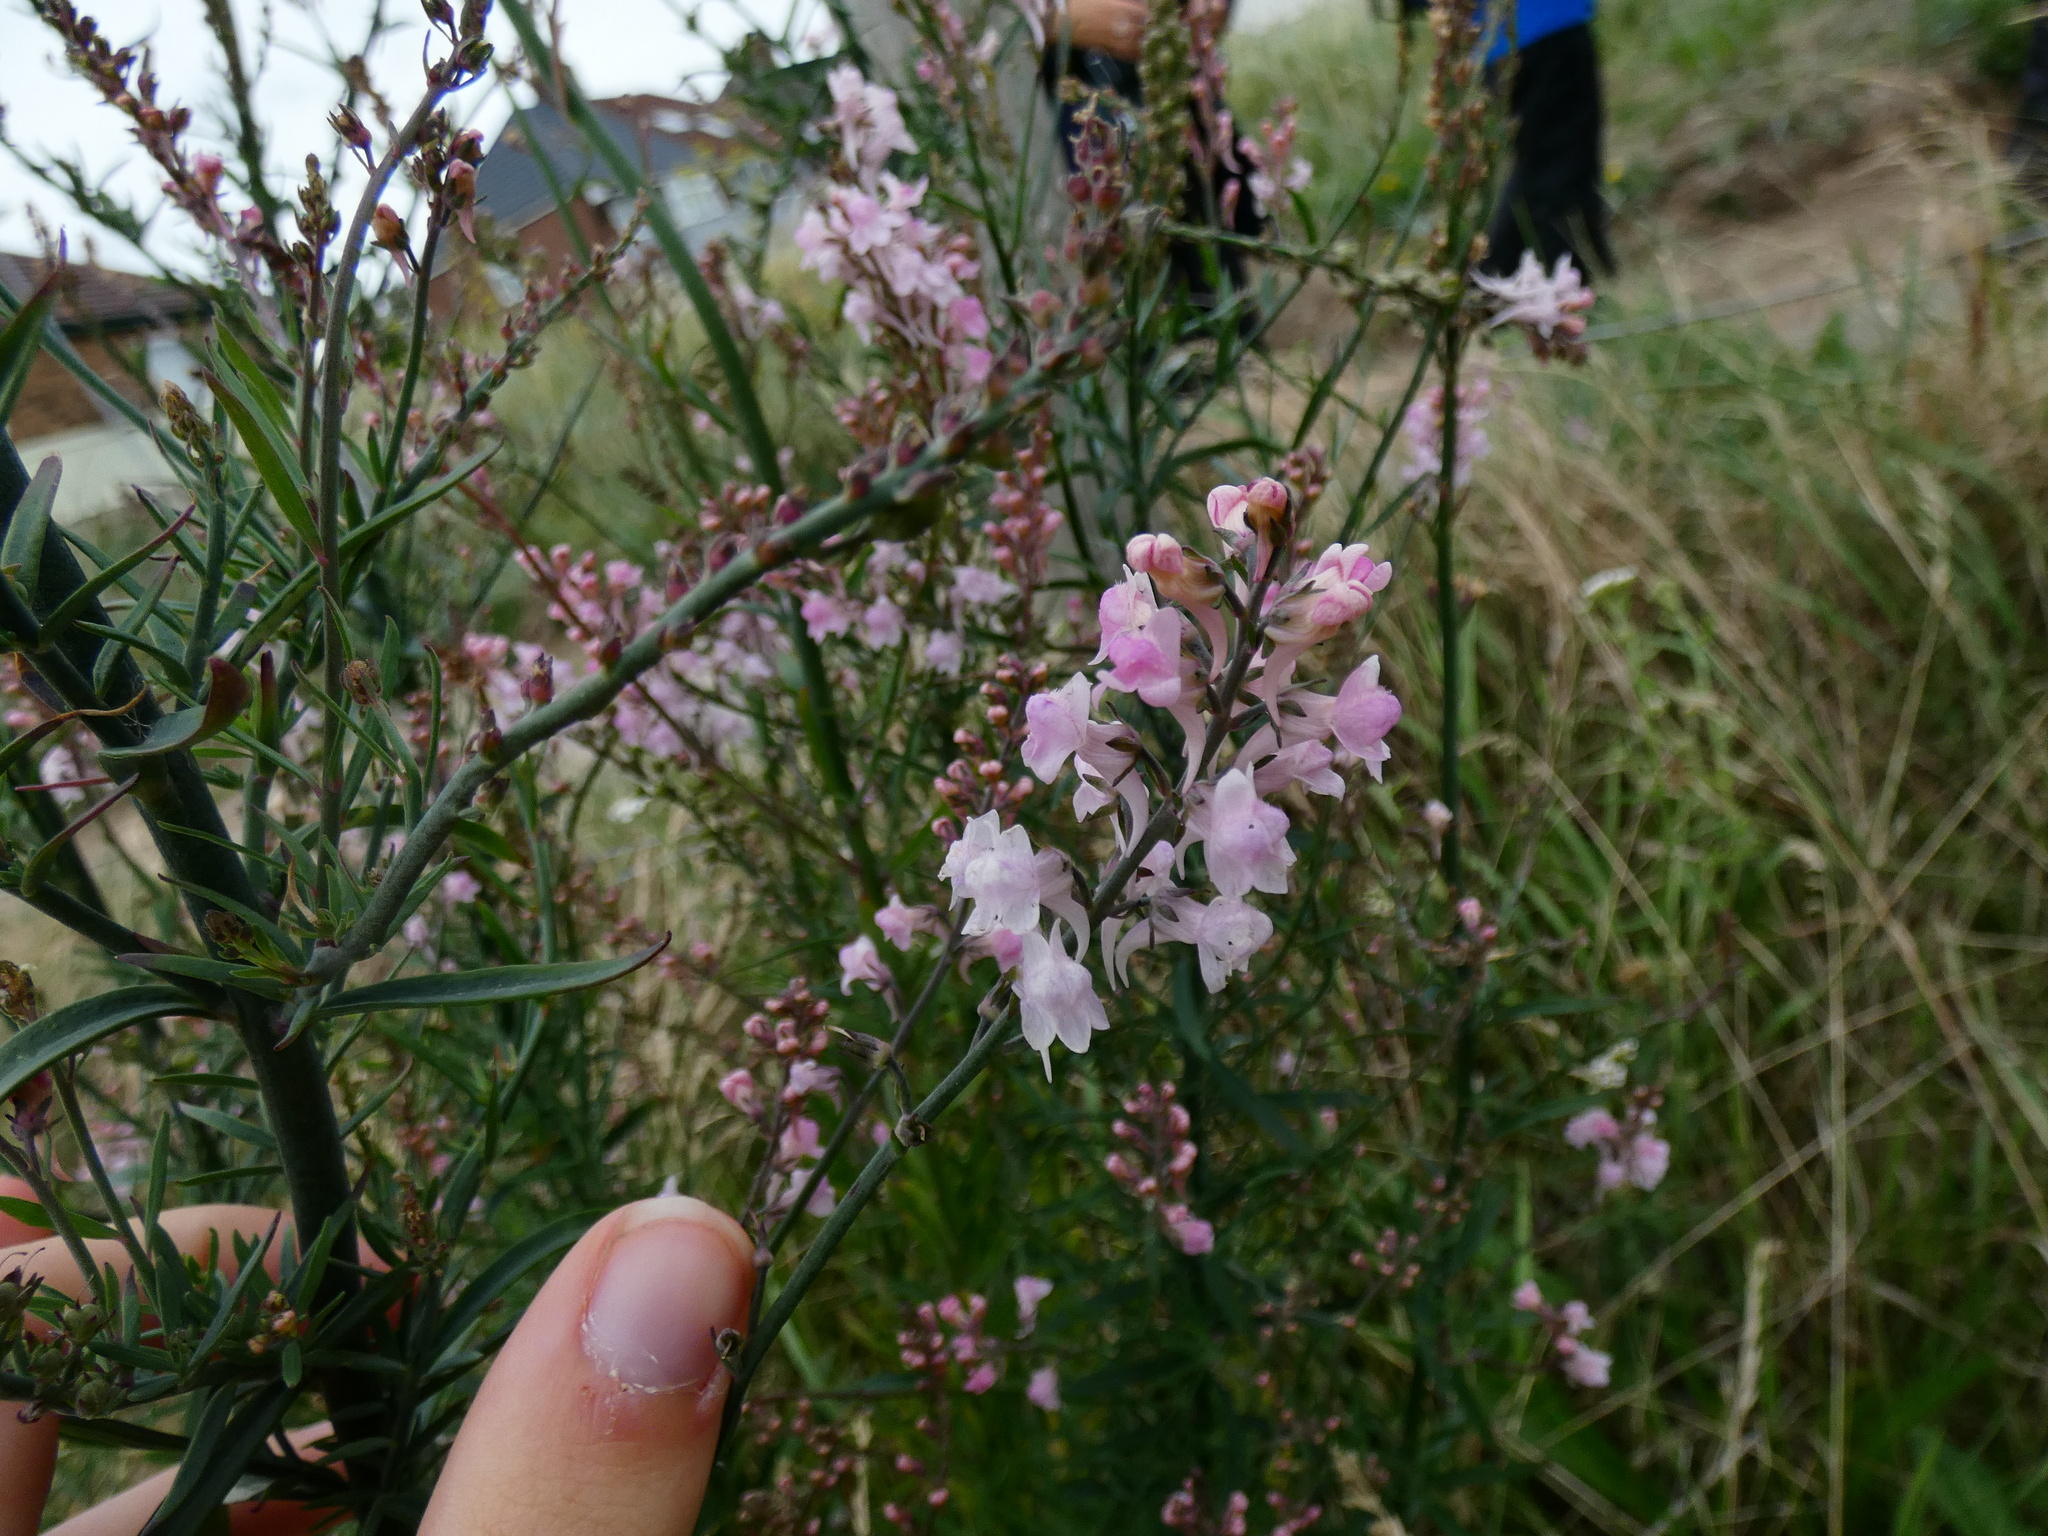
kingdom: Plantae
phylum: Tracheophyta
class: Magnoliopsida
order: Lamiales
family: Plantaginaceae
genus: Linaria
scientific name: Linaria purpurea
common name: Purple toadflax
